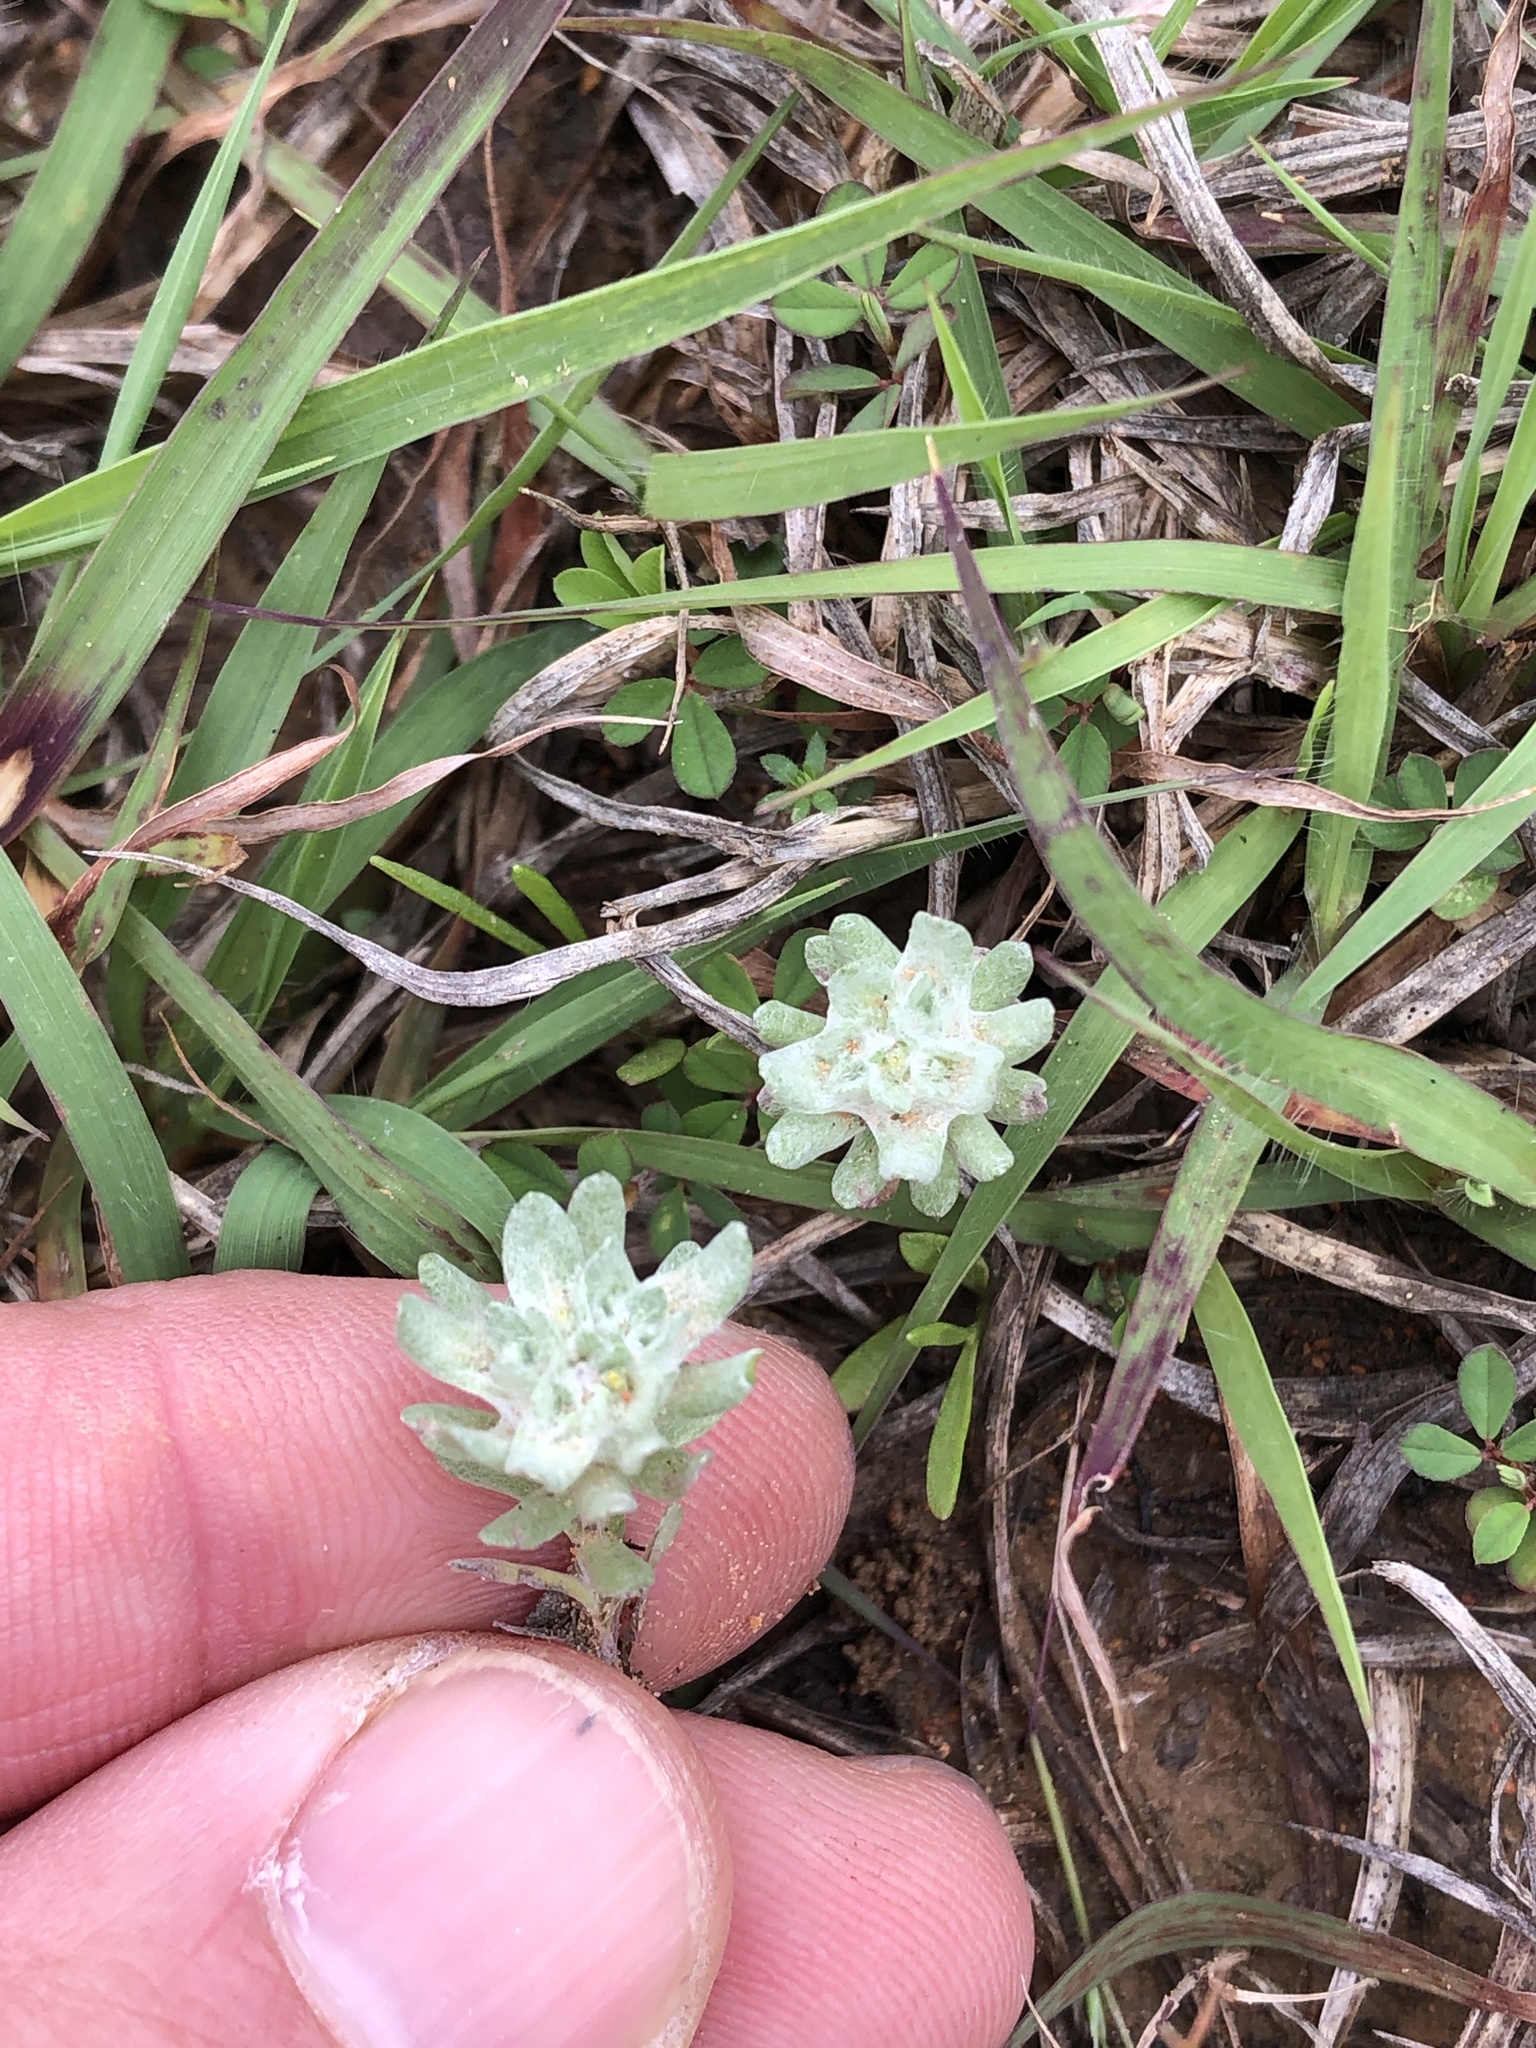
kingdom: Plantae
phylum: Tracheophyta
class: Magnoliopsida
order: Asterales
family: Asteraceae
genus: Diaperia
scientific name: Diaperia prolifera
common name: Big-head rabbit-tobacco
